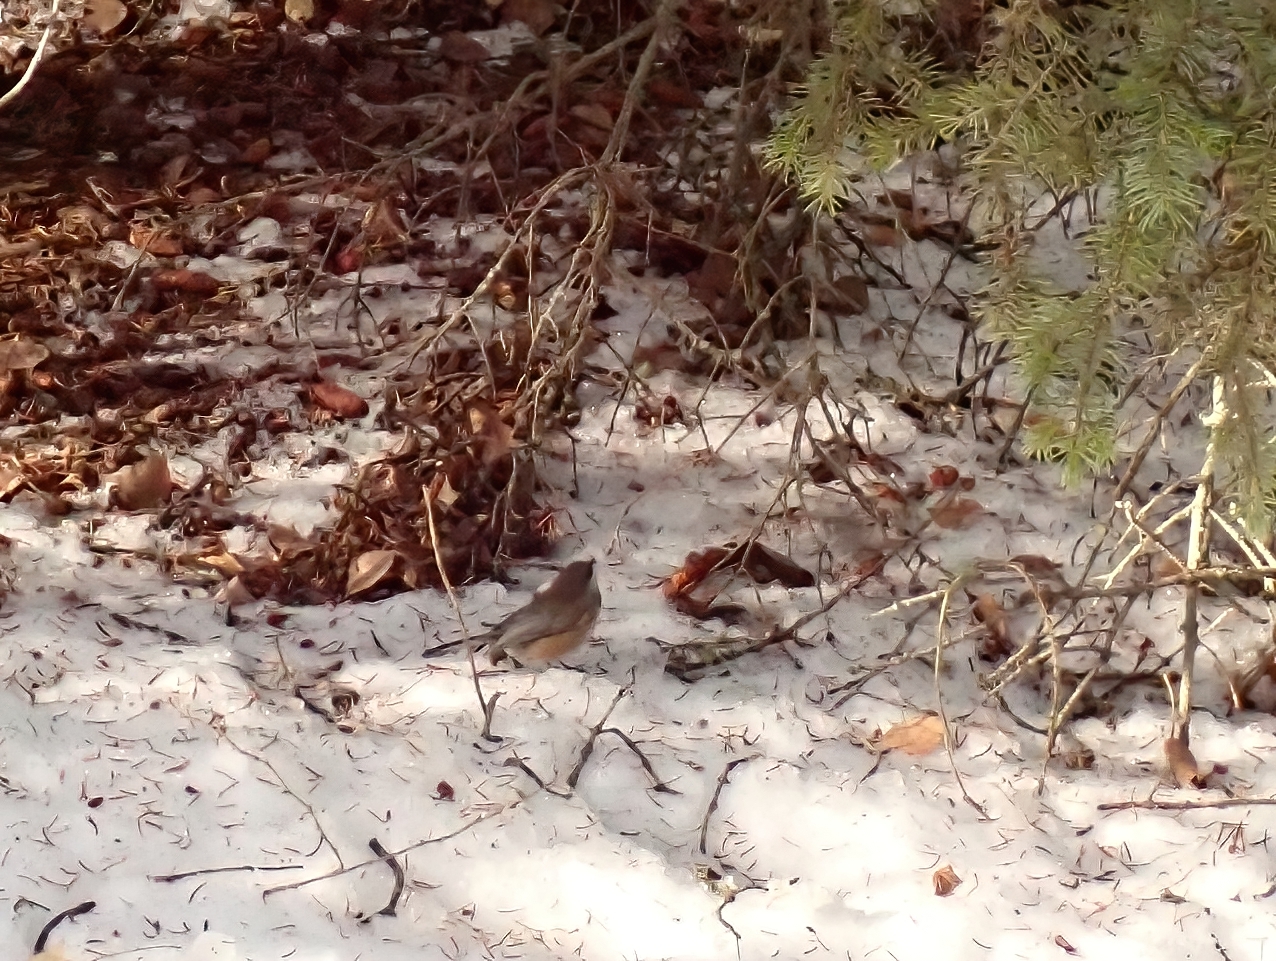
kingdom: Animalia
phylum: Chordata
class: Aves
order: Passeriformes
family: Paridae
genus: Poecile
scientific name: Poecile hudsonicus
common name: Boreal chickadee
